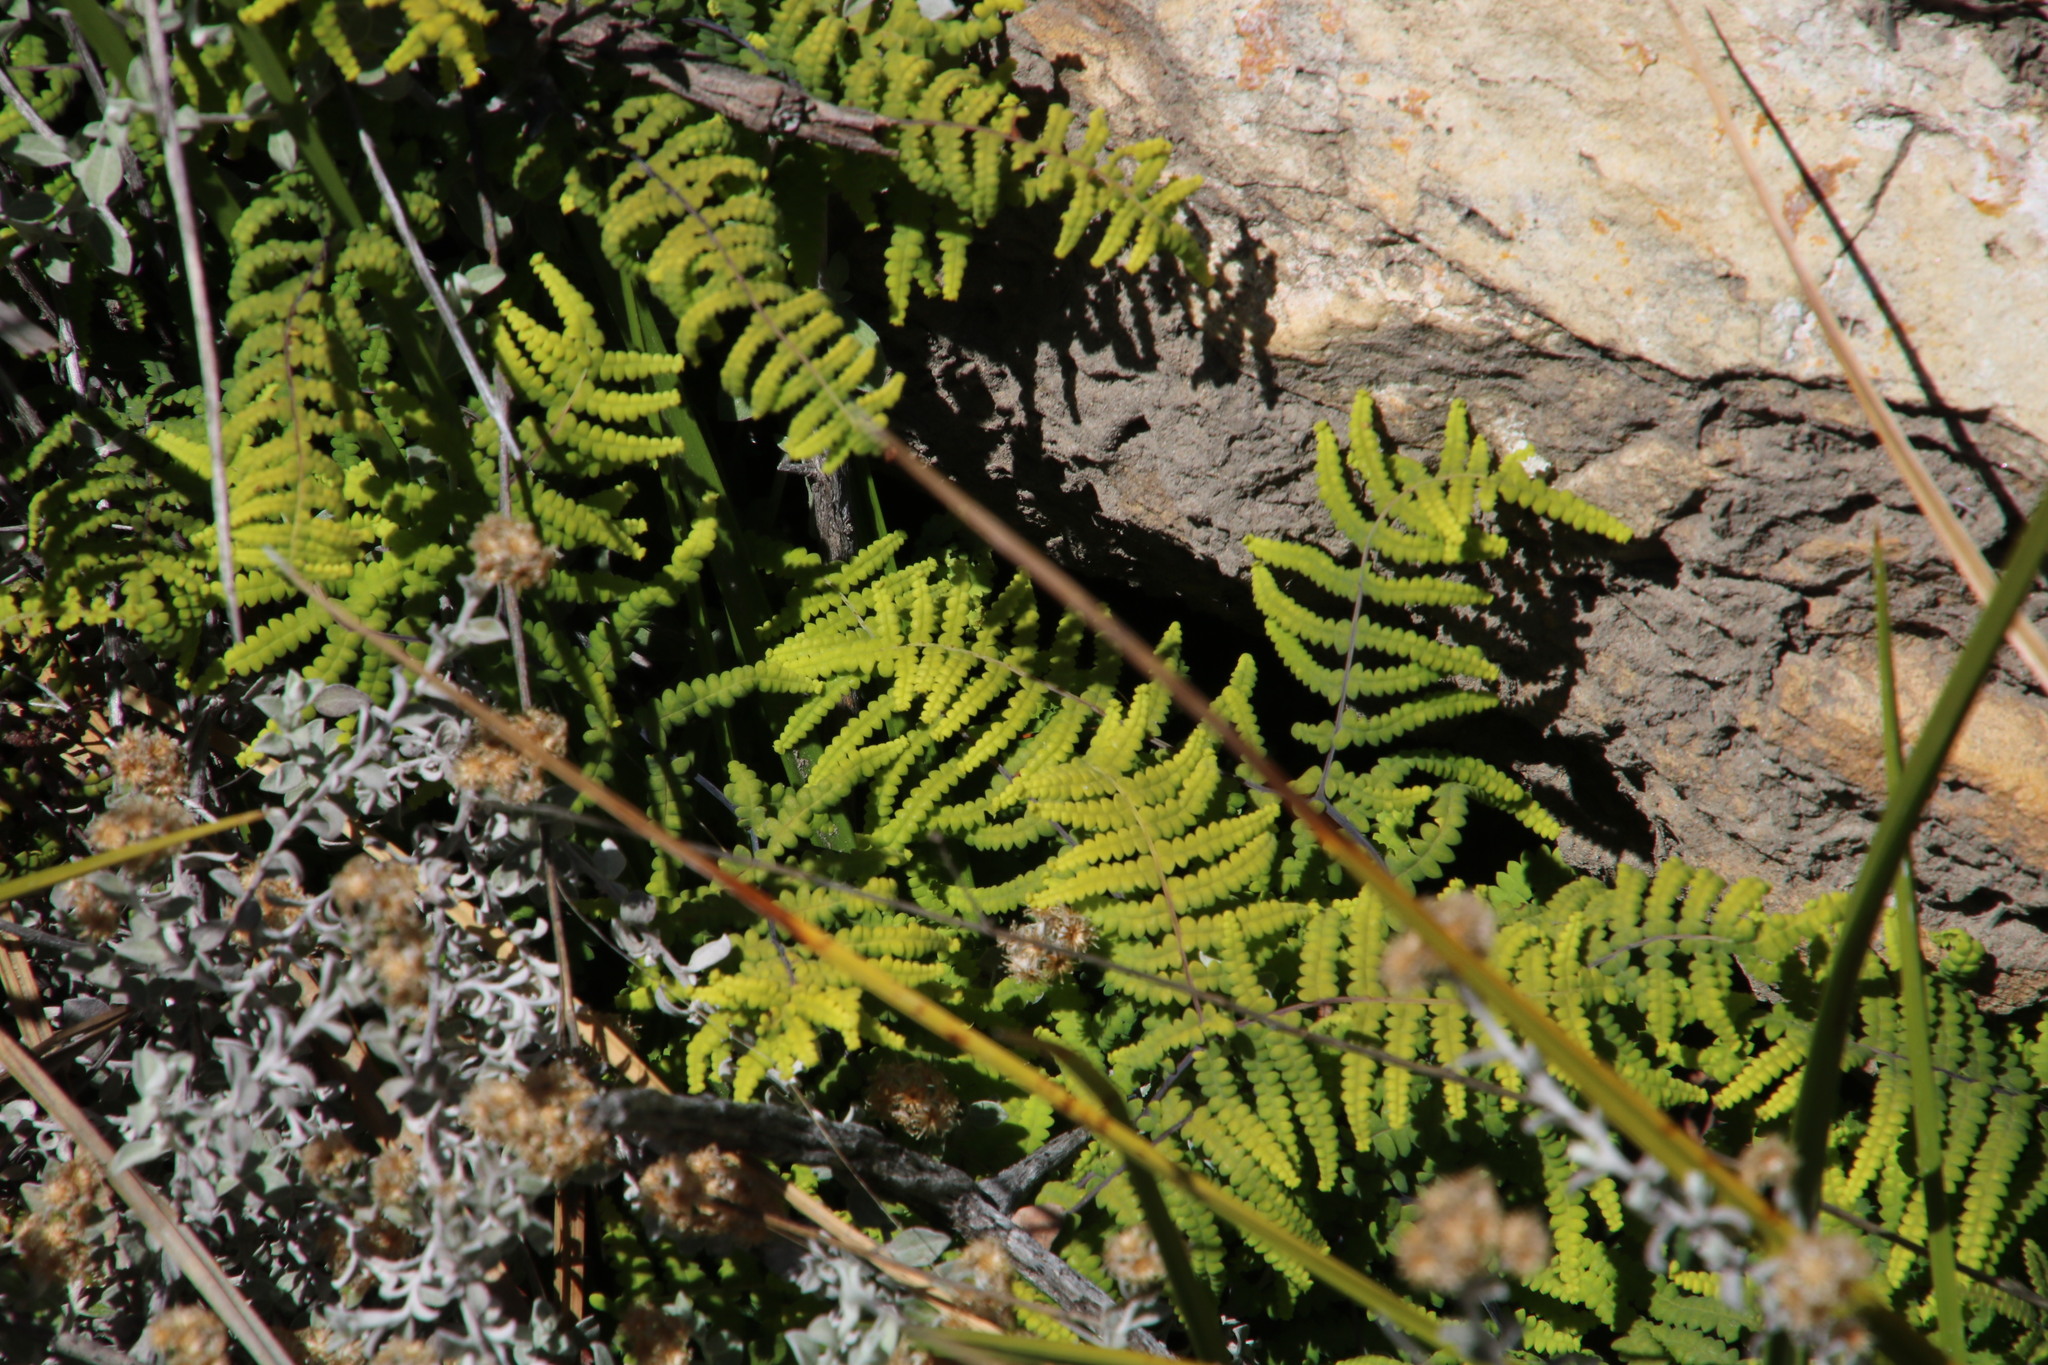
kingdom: Plantae
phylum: Tracheophyta
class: Polypodiopsida
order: Gleicheniales
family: Gleicheniaceae
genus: Gleichenia
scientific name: Gleichenia polypodioides
